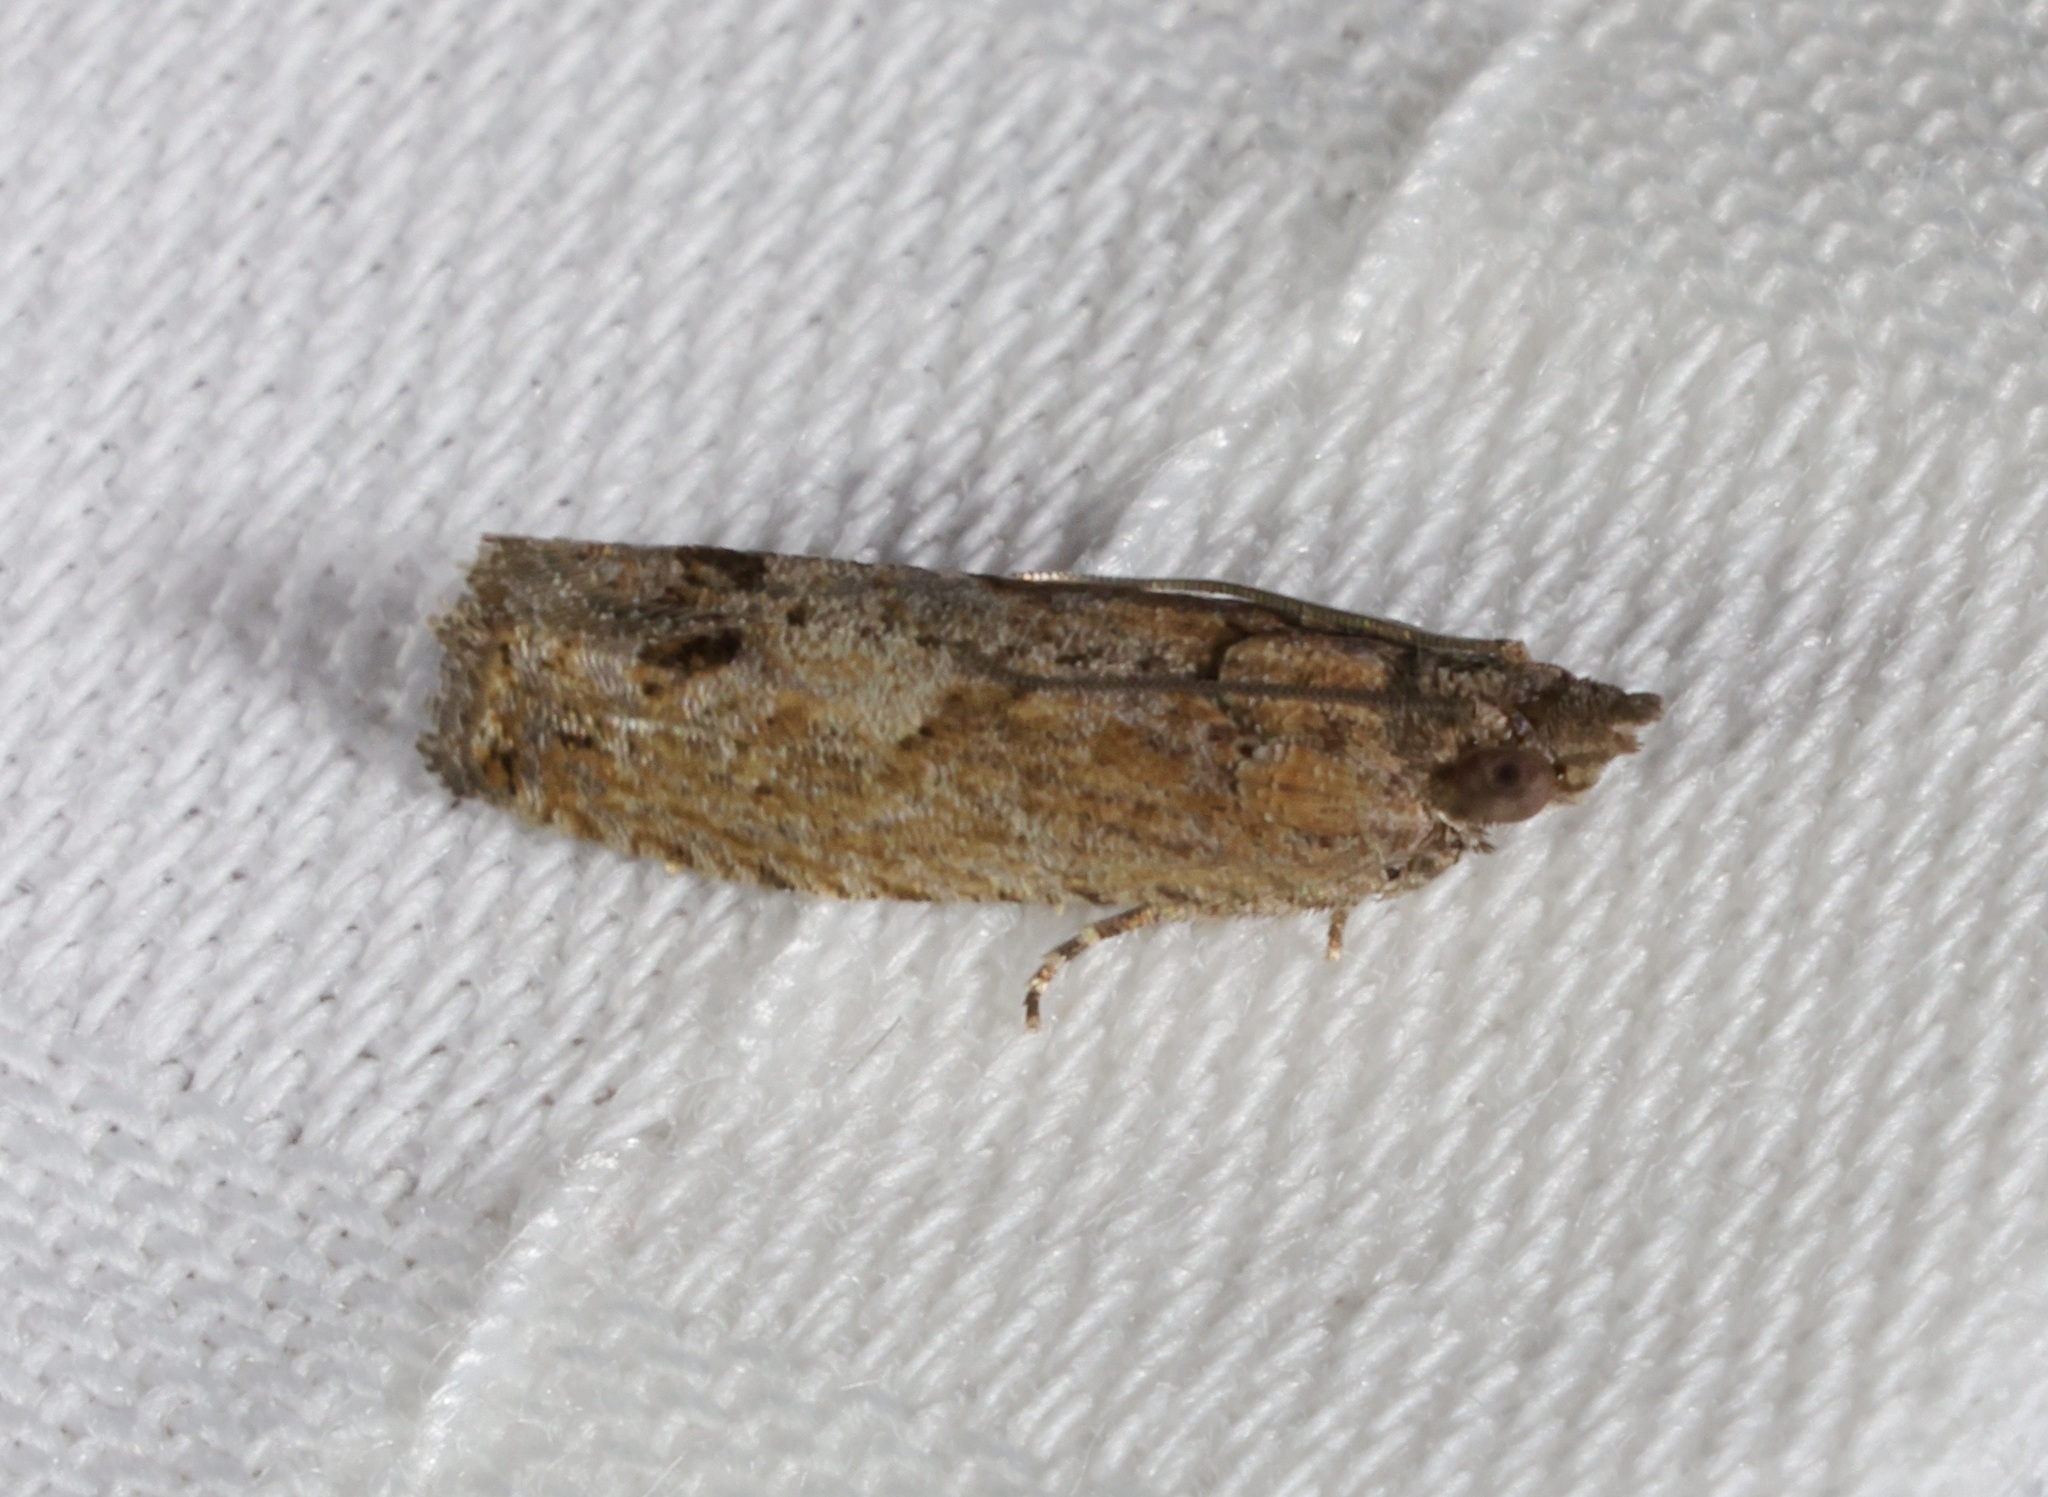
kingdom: Animalia
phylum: Arthropoda
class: Insecta
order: Lepidoptera
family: Tortricidae
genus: Strepsicrates
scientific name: Strepsicrates semicanella
